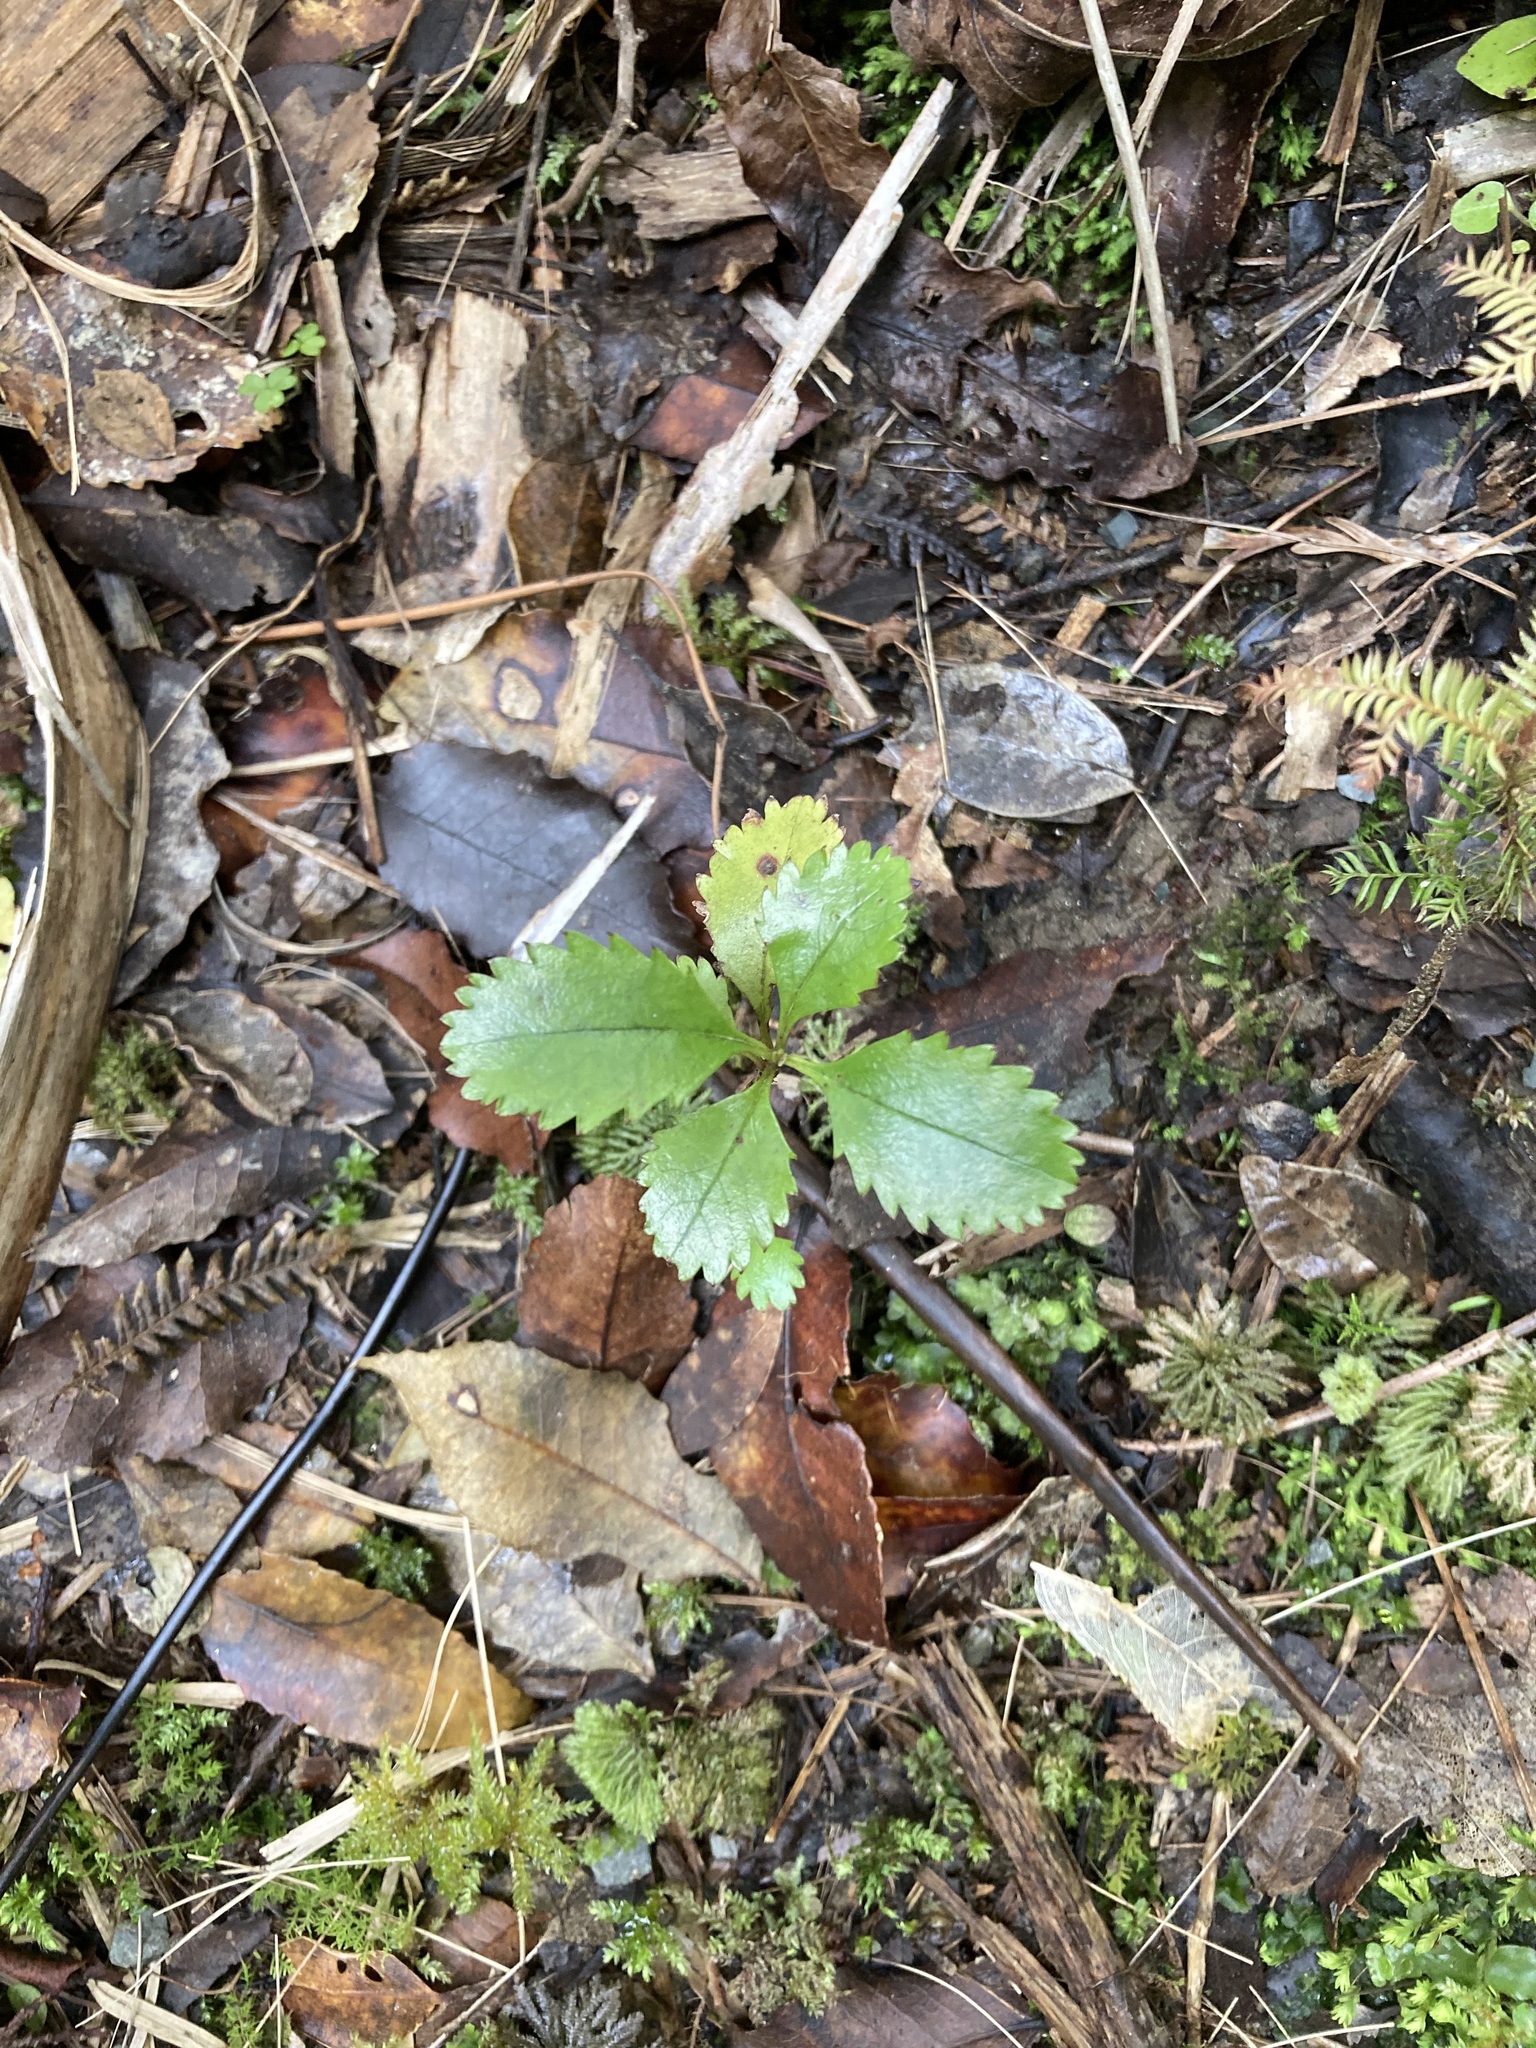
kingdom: Plantae
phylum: Tracheophyta
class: Magnoliopsida
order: Chloranthales
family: Chloranthaceae
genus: Ascarina
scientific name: Ascarina lucida
